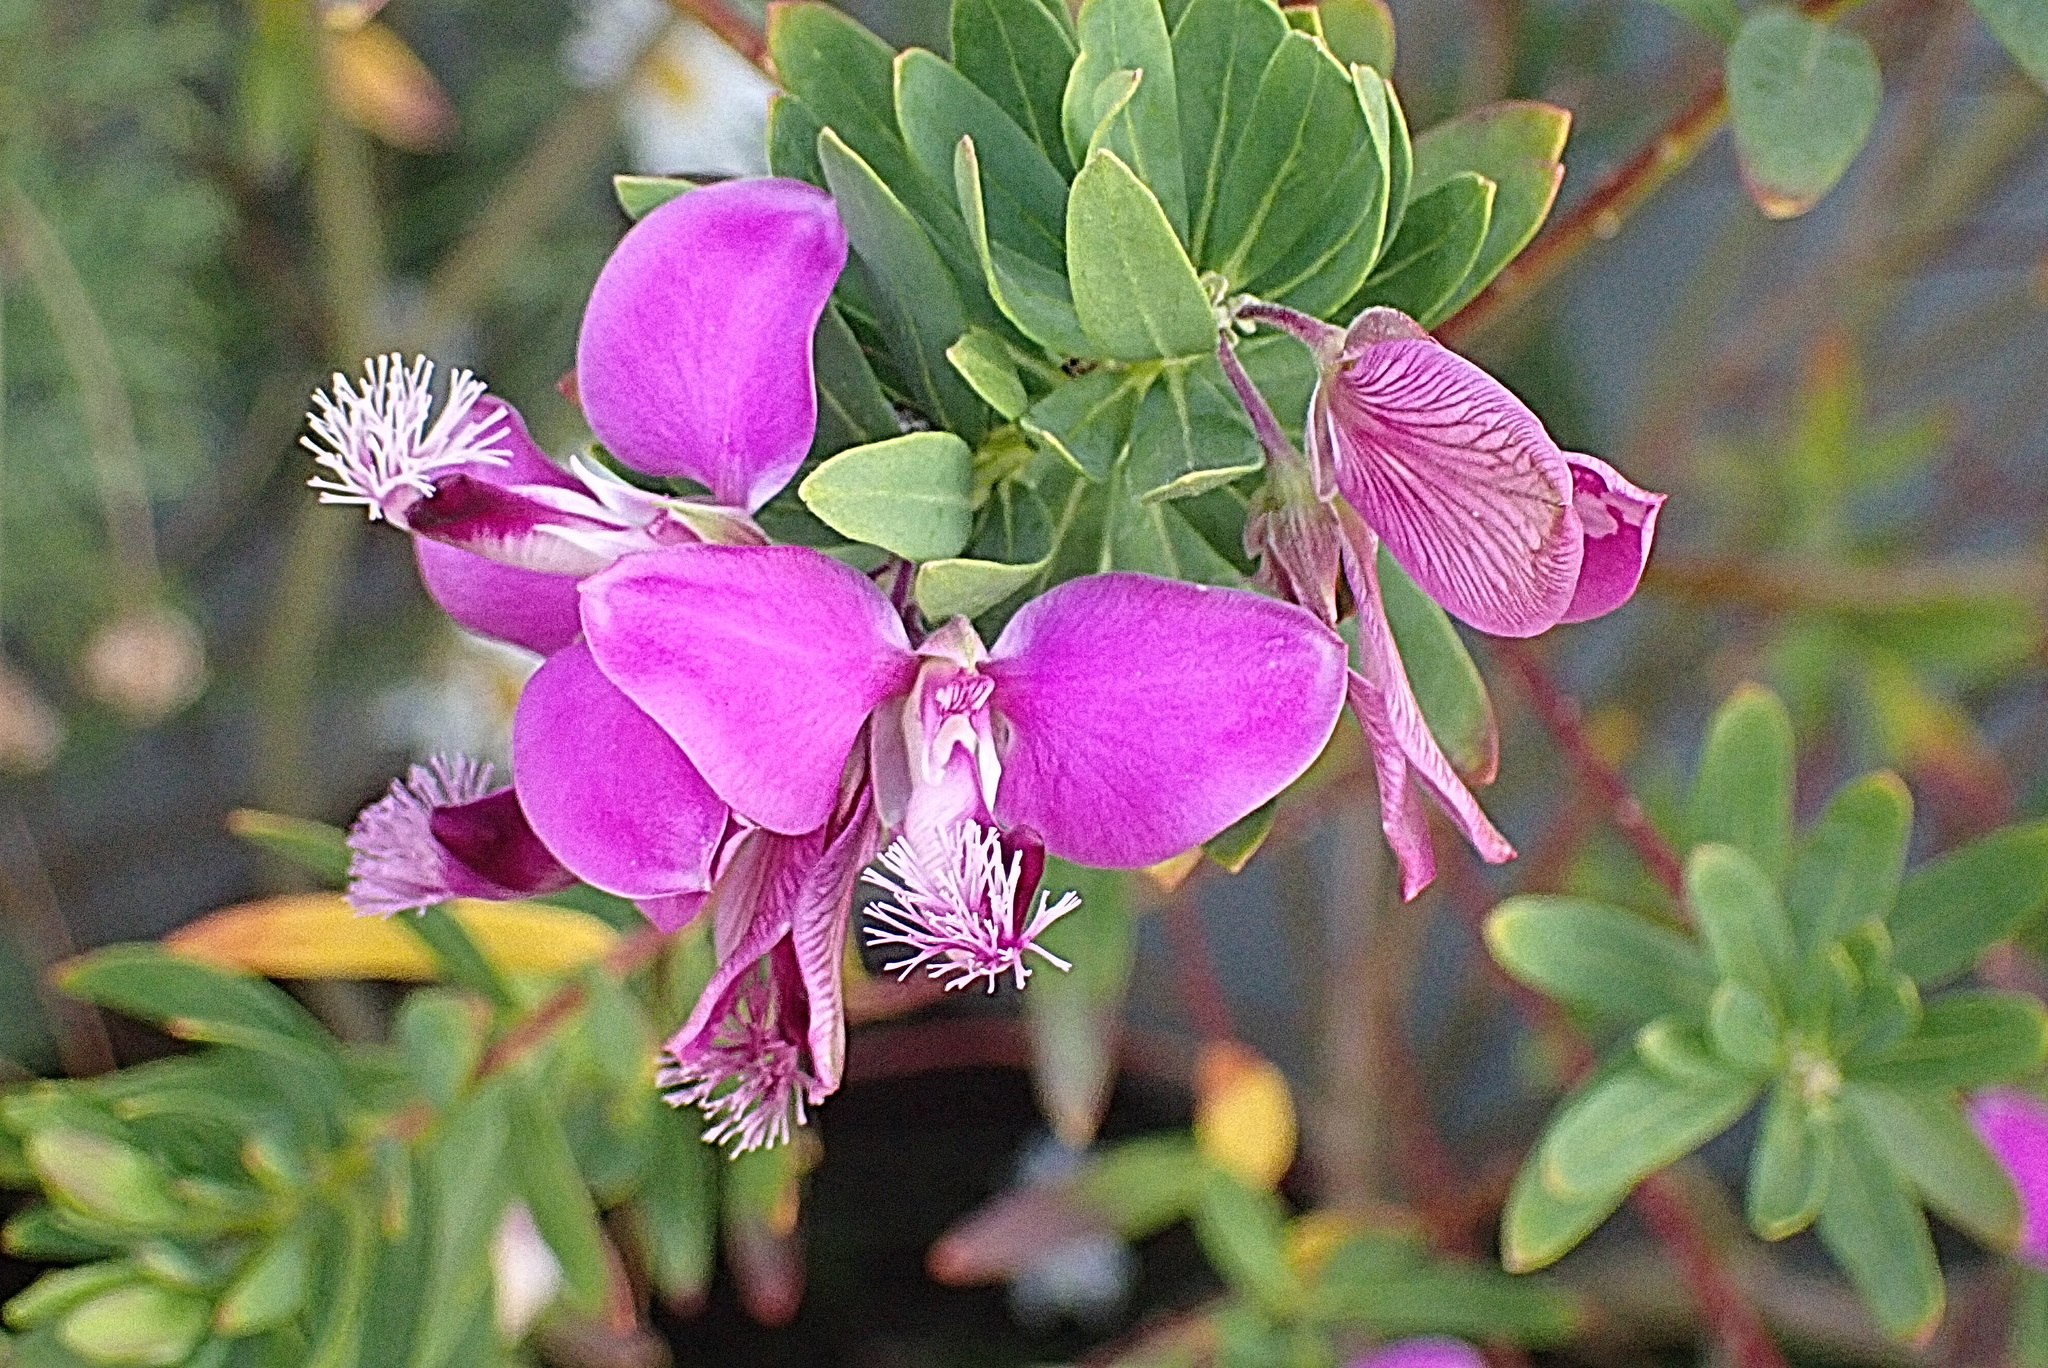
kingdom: Plantae
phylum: Tracheophyta
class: Magnoliopsida
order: Fabales
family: Polygalaceae
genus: Polygala
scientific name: Polygala myrtifolia
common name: Myrtle-leaf milkwort
